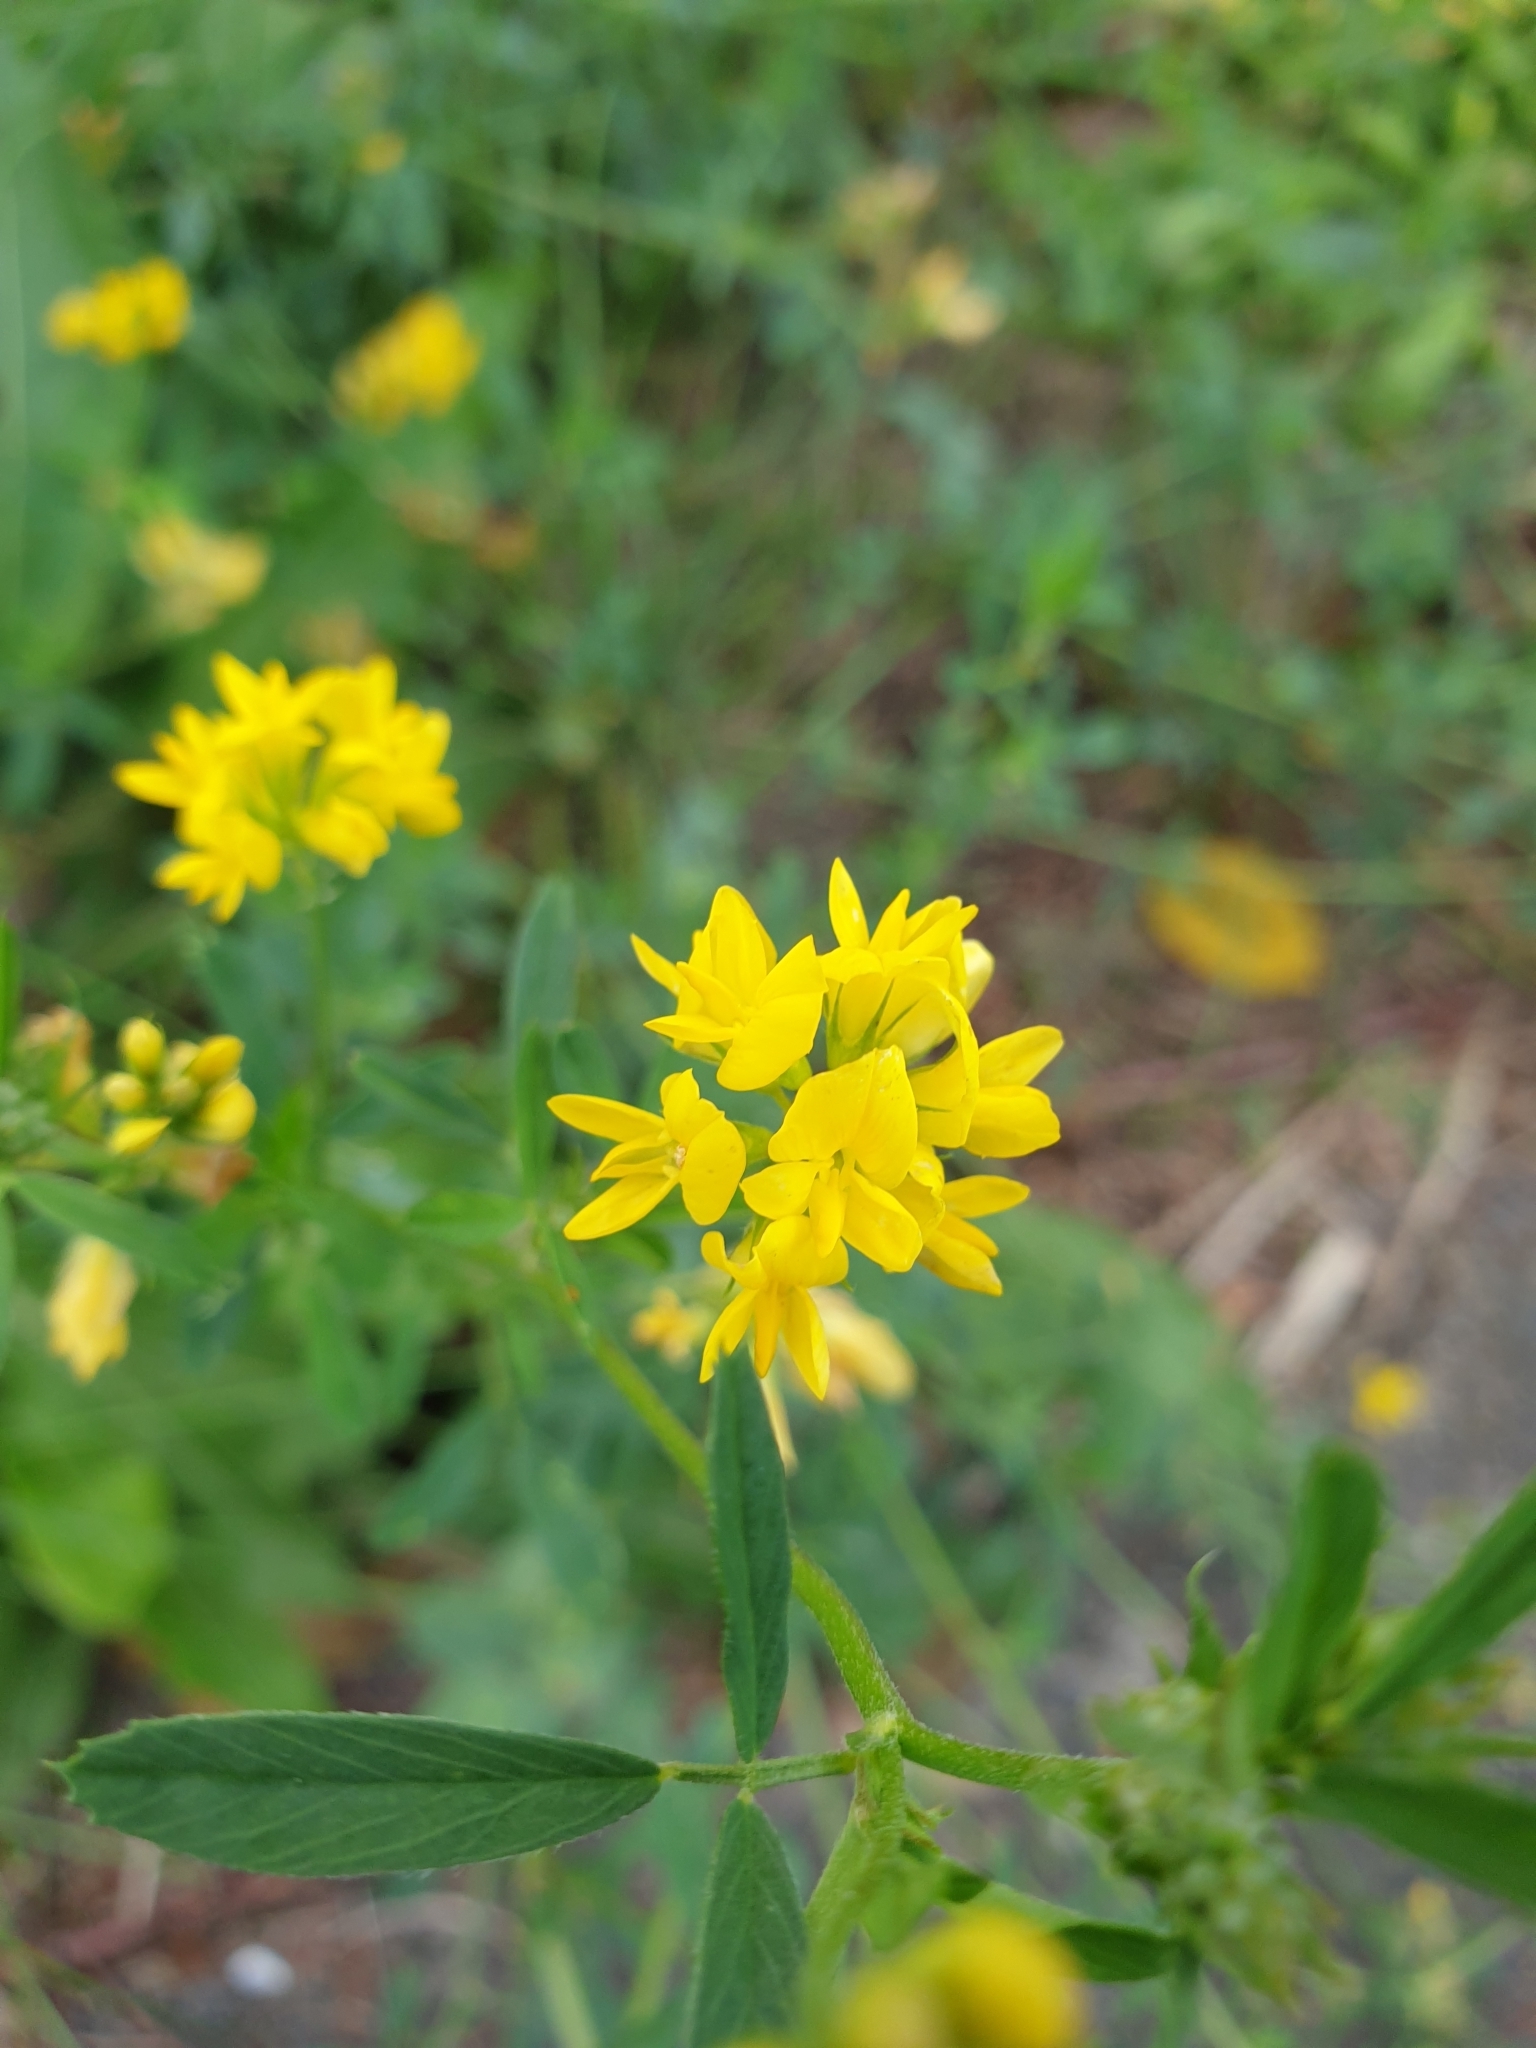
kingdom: Plantae
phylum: Tracheophyta
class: Magnoliopsida
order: Fabales
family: Fabaceae
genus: Medicago
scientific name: Medicago falcata
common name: Sickle medick
